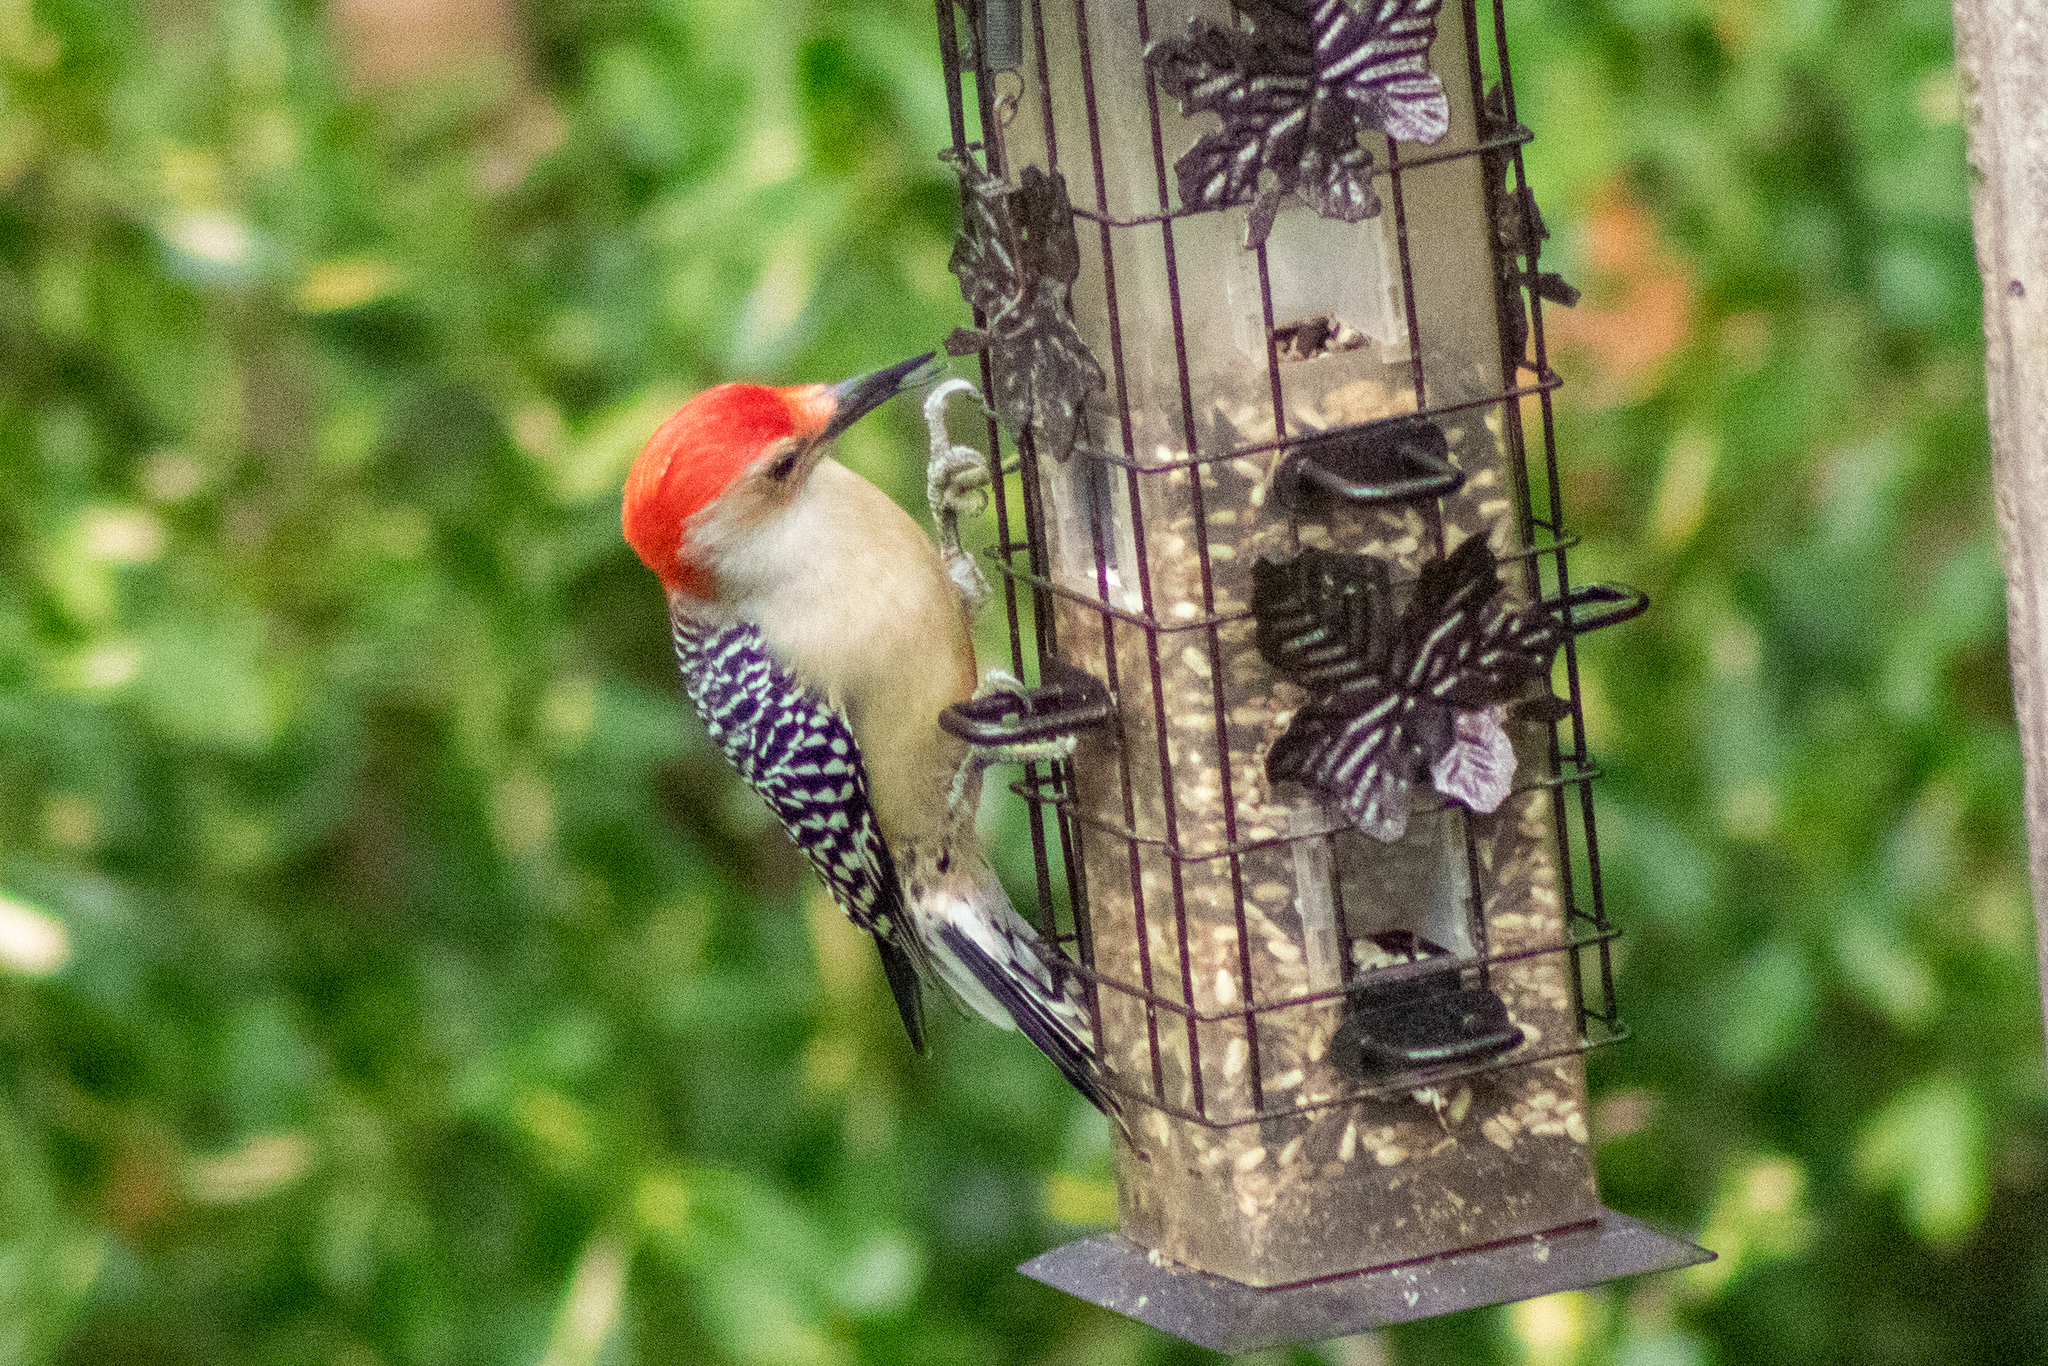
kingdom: Animalia
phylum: Chordata
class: Aves
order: Piciformes
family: Picidae
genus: Melanerpes
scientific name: Melanerpes carolinus
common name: Red-bellied woodpecker
